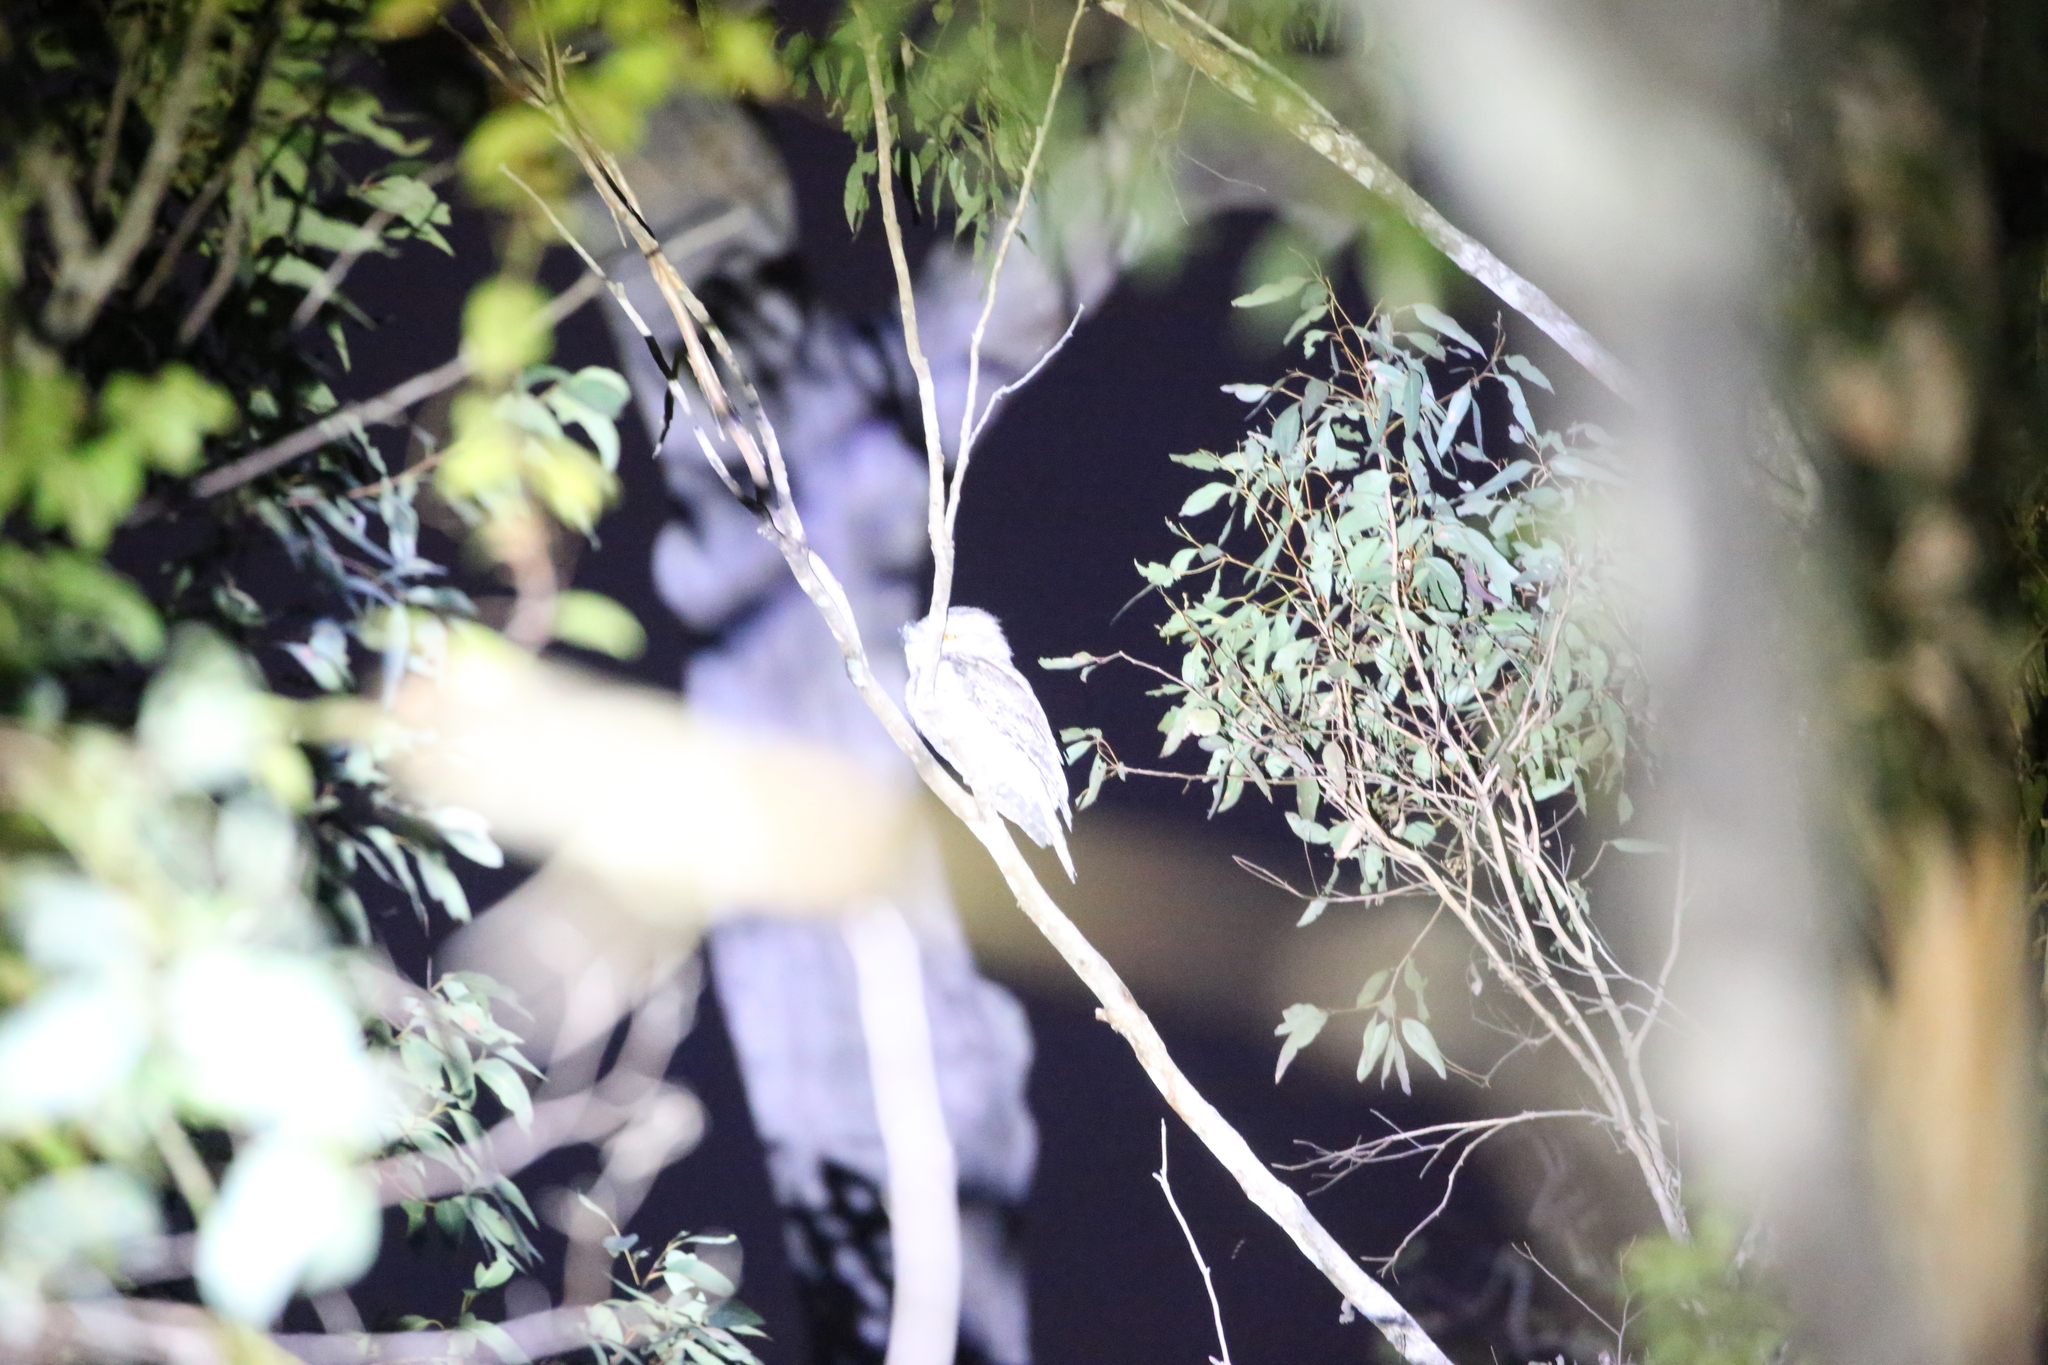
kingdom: Animalia
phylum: Chordata
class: Aves
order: Caprimulgiformes
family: Podargidae
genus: Podargus
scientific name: Podargus strigoides
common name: Tawny frogmouth
